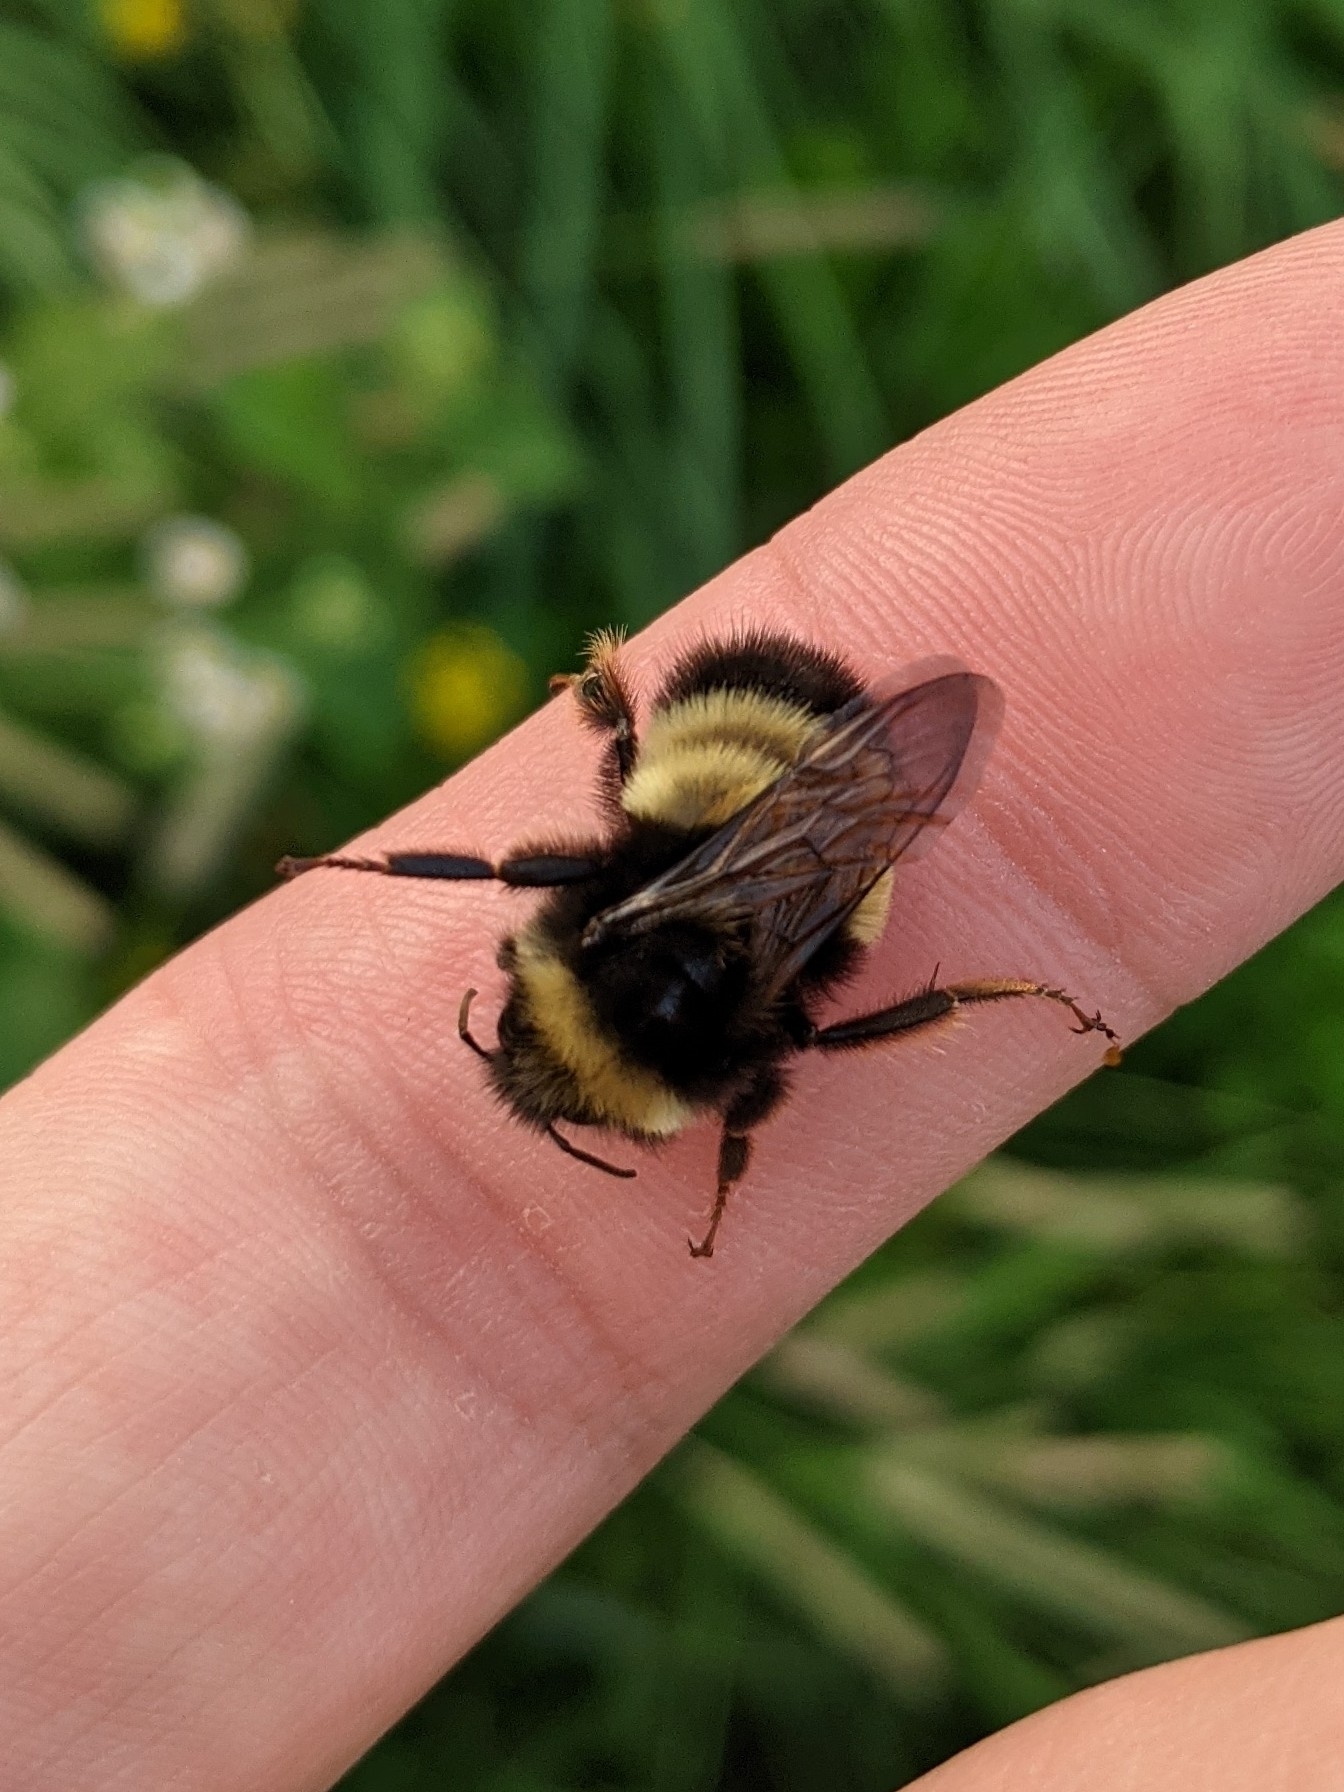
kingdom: Animalia
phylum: Arthropoda
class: Insecta
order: Hymenoptera
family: Apidae
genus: Bombus
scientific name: Bombus terricola
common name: Yellow-banded bumble bee
